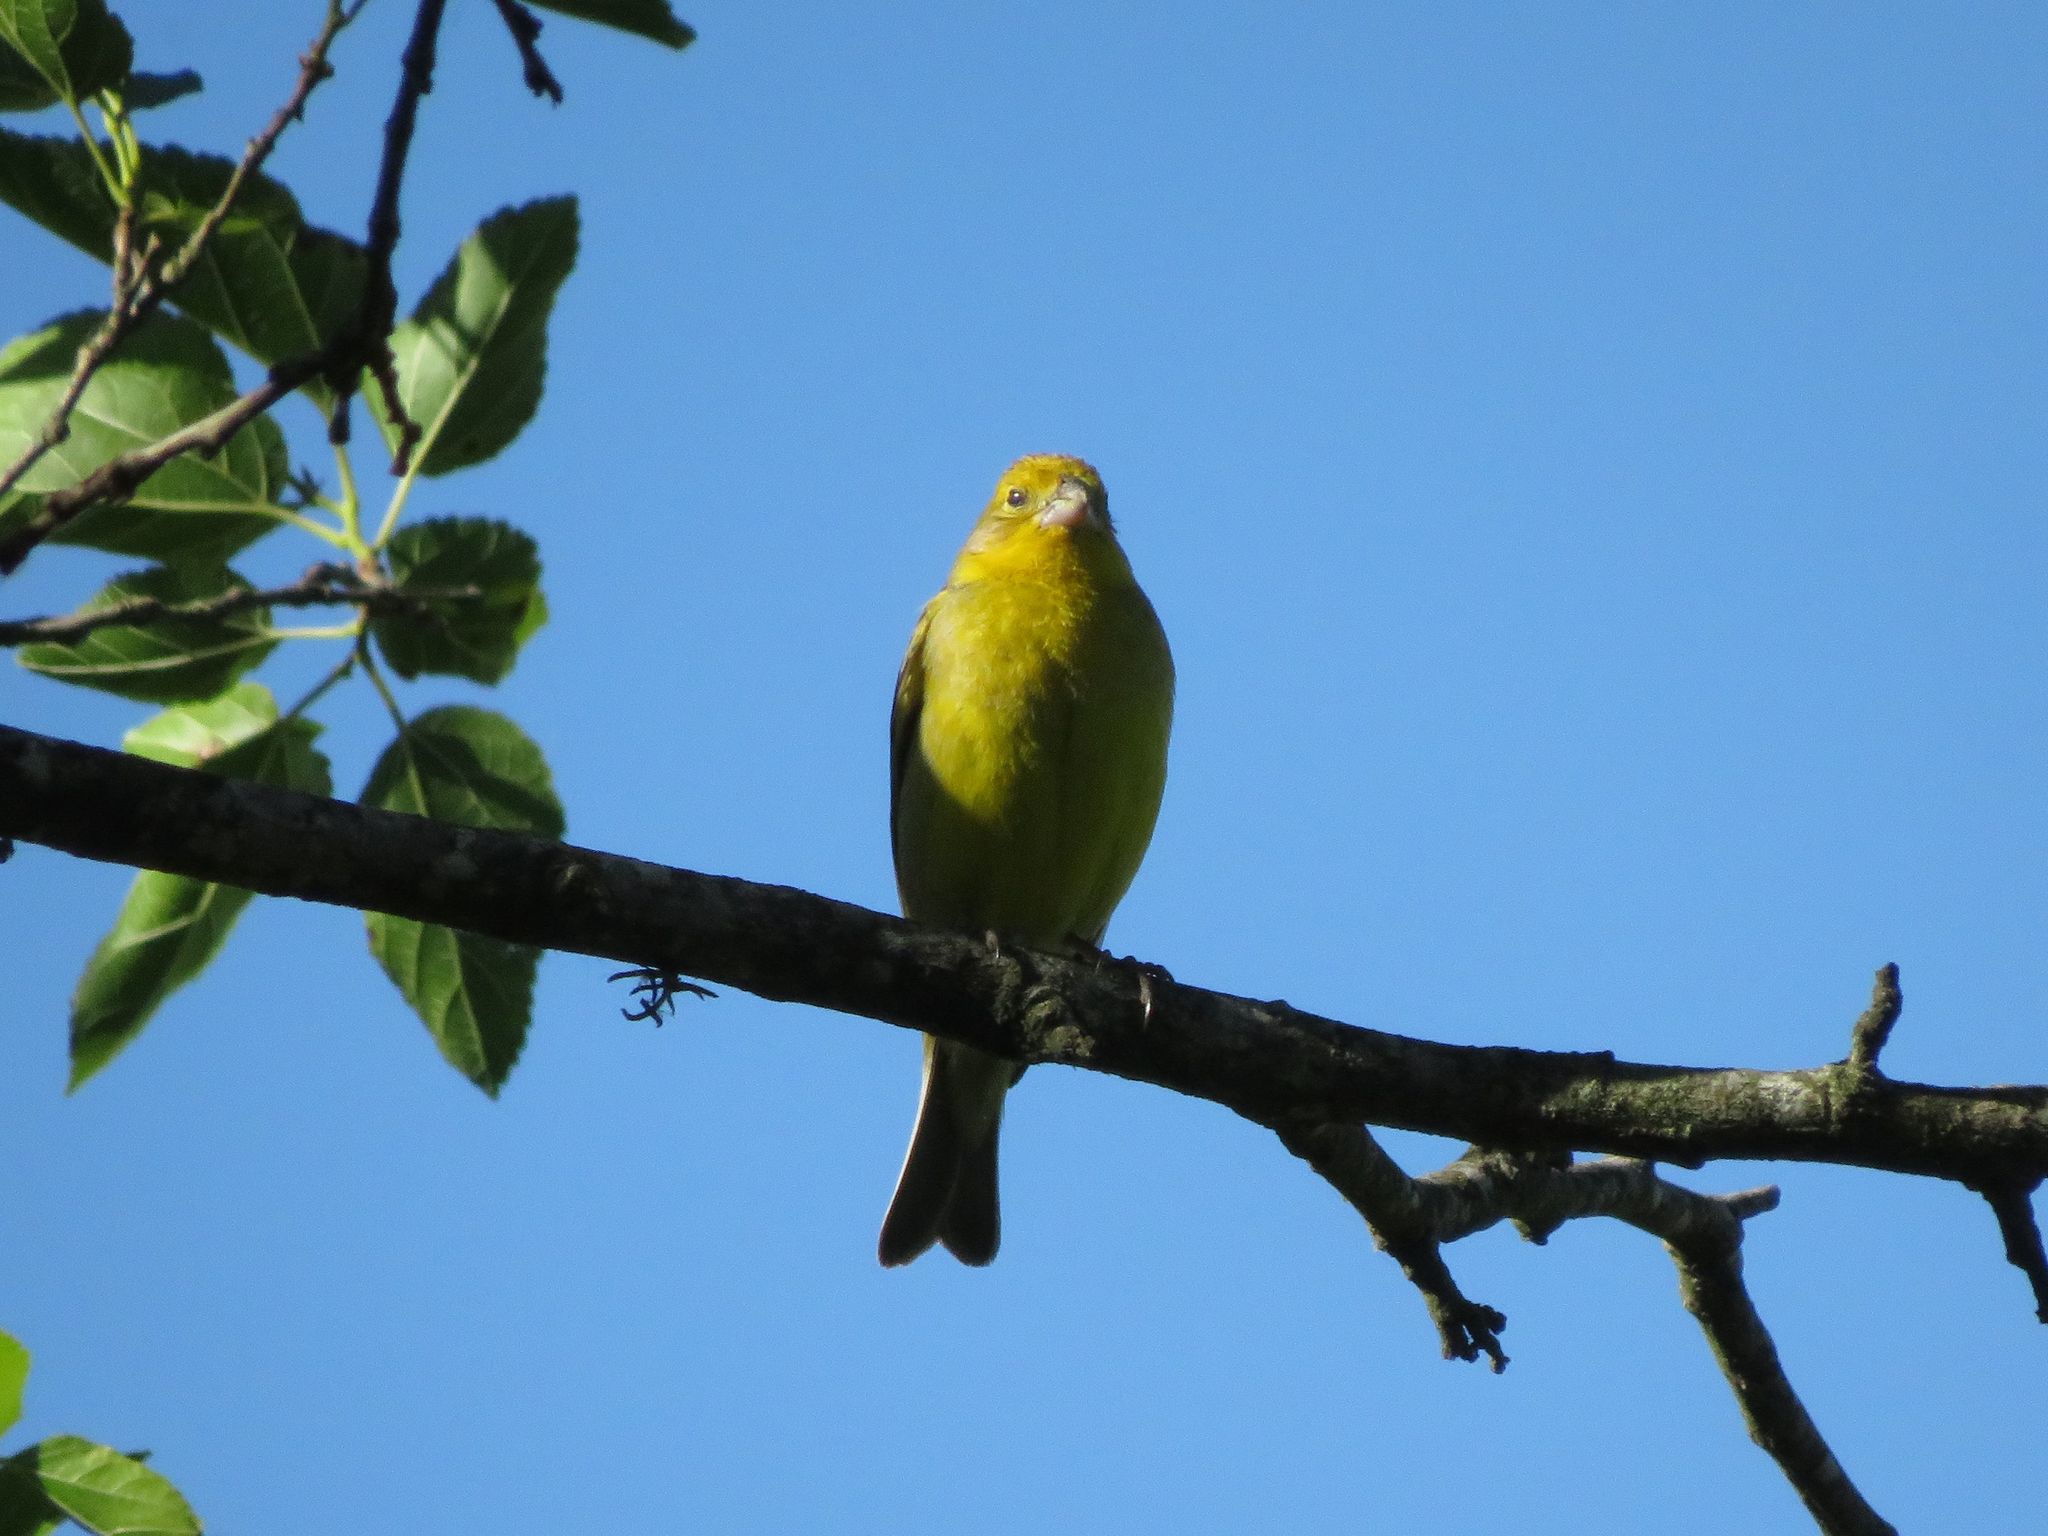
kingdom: Animalia
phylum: Chordata
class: Aves
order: Passeriformes
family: Thraupidae
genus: Sicalis
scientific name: Sicalis luteola
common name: Grassland yellow-finch
